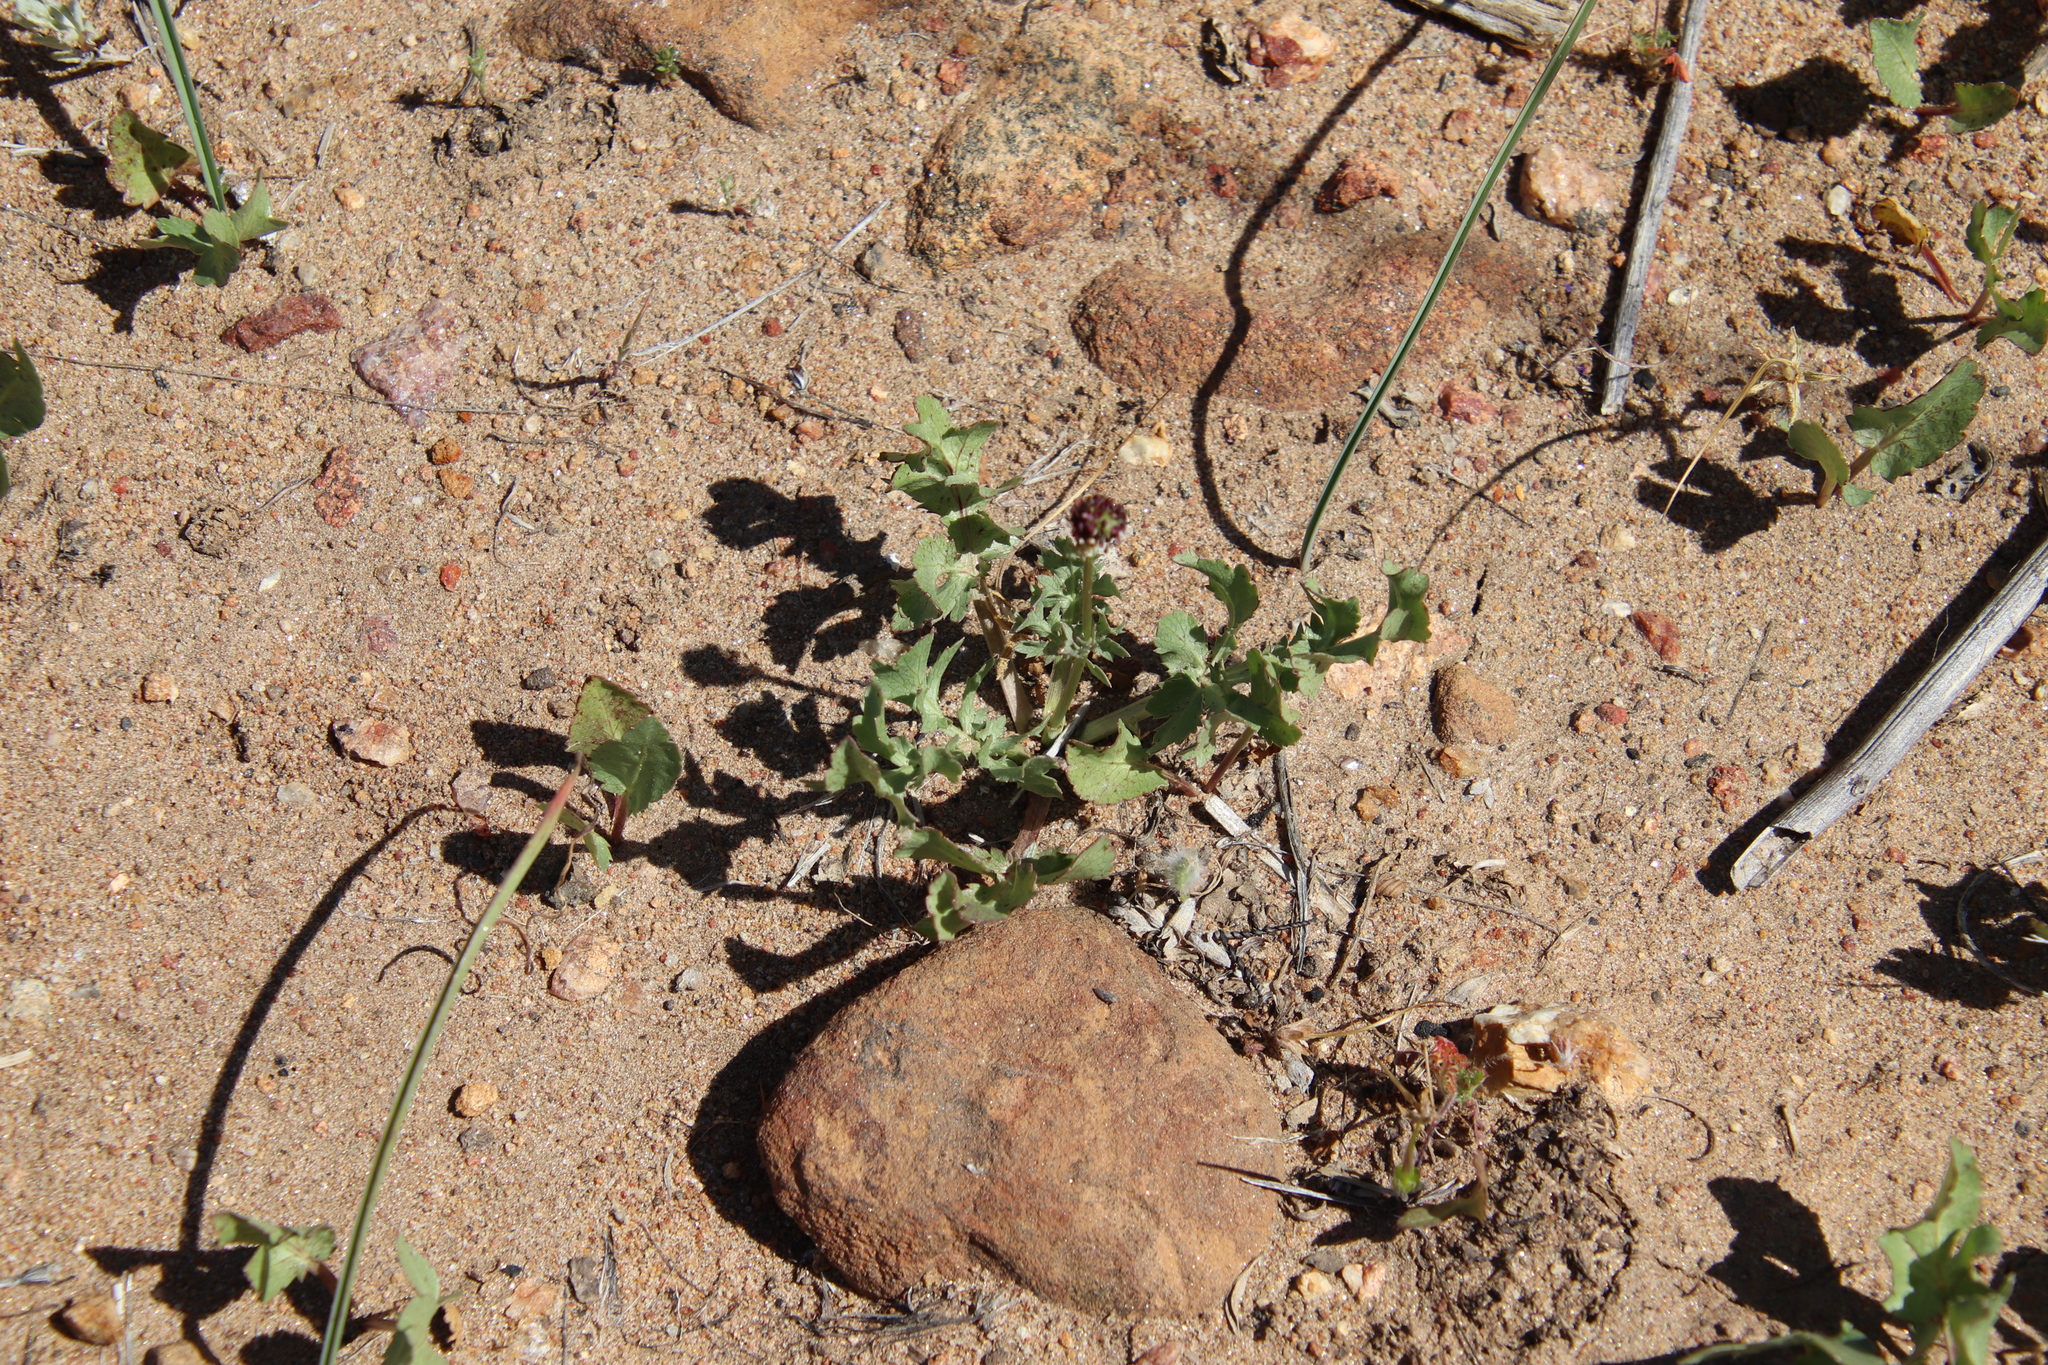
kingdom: Plantae
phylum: Tracheophyta
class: Magnoliopsida
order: Apiales
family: Apiaceae
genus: Sanicula
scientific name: Sanicula bipinnatifida
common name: Shoe-buttons
